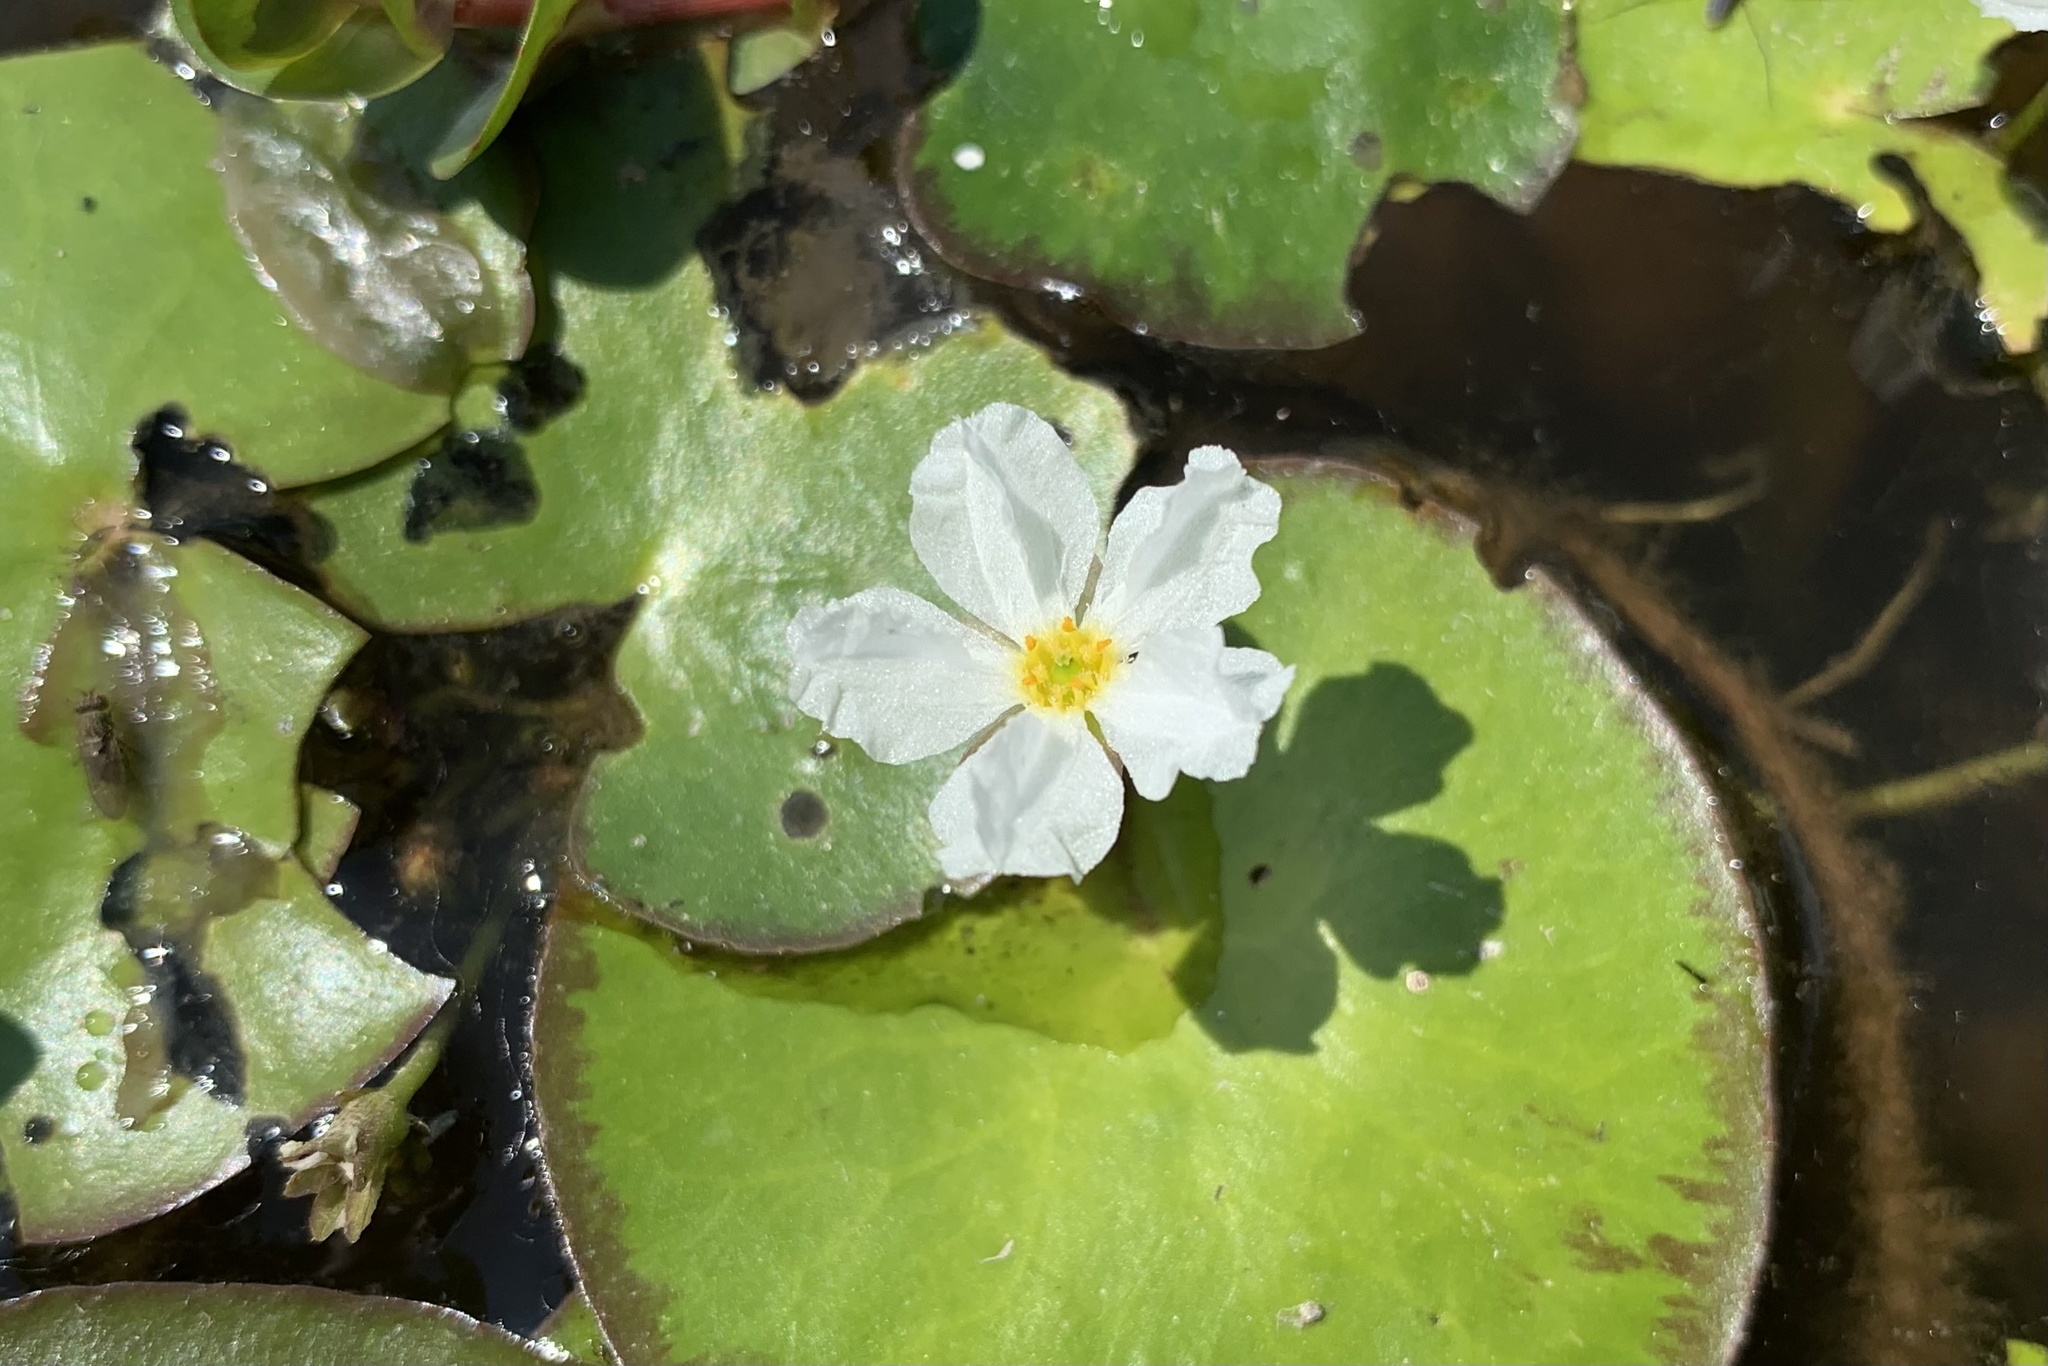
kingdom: Plantae
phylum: Tracheophyta
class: Magnoliopsida
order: Asterales
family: Menyanthaceae
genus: Nymphoides
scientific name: Nymphoides hydrophylla
